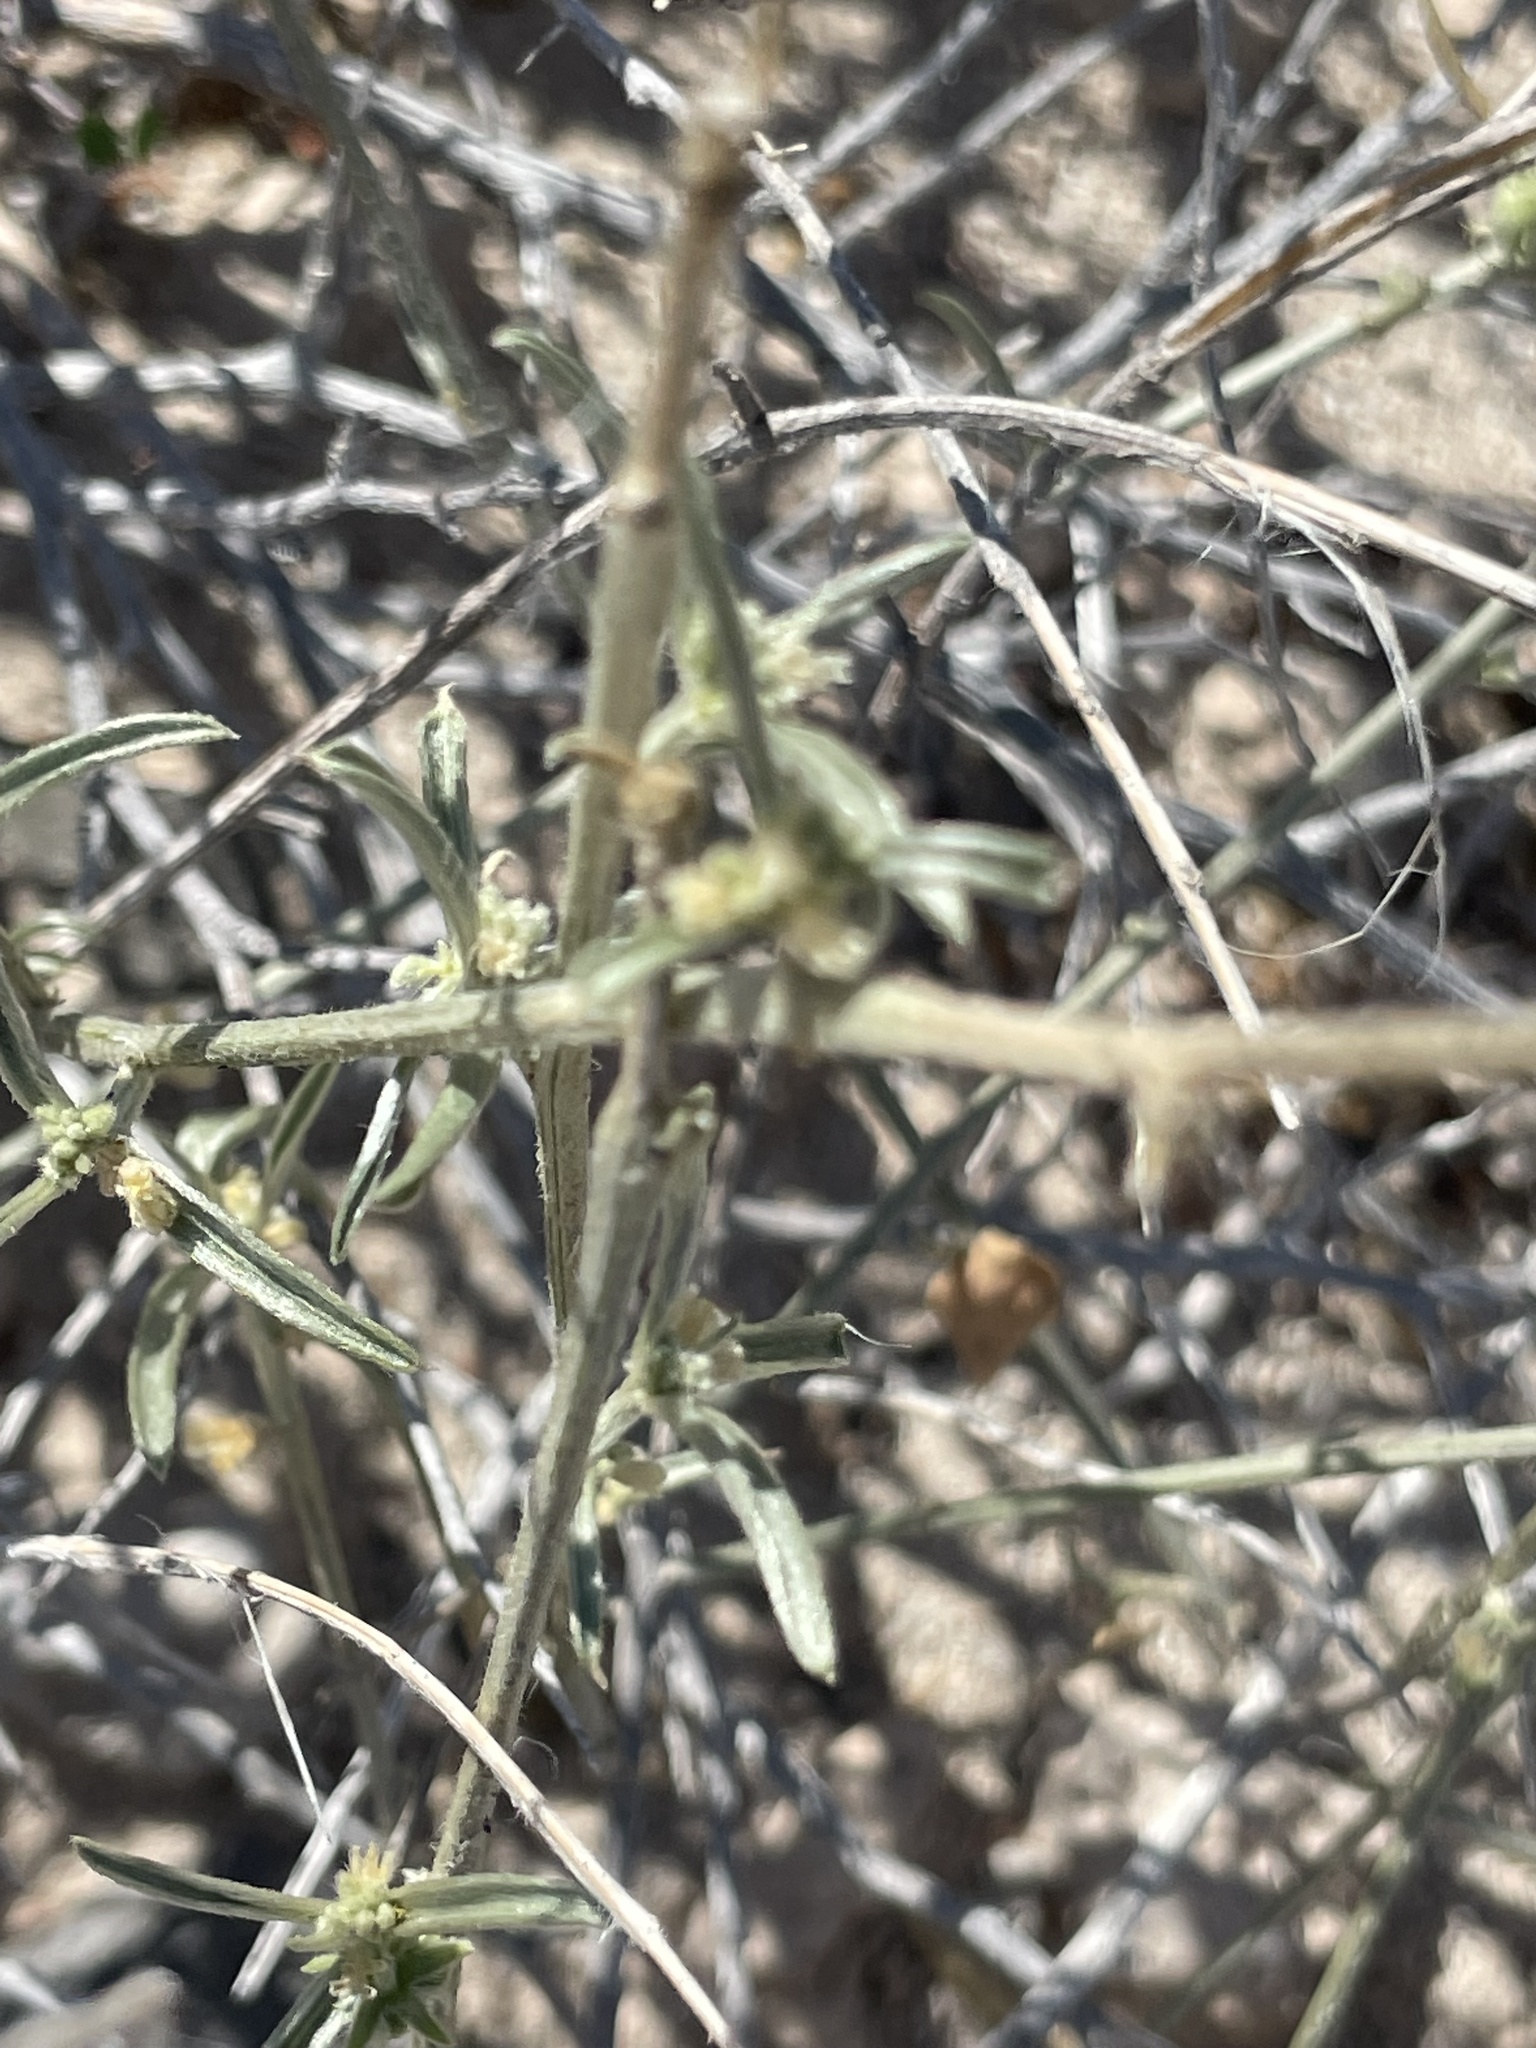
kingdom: Plantae
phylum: Tracheophyta
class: Magnoliopsida
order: Malpighiales
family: Euphorbiaceae
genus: Ditaxis
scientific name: Ditaxis lanceolata
